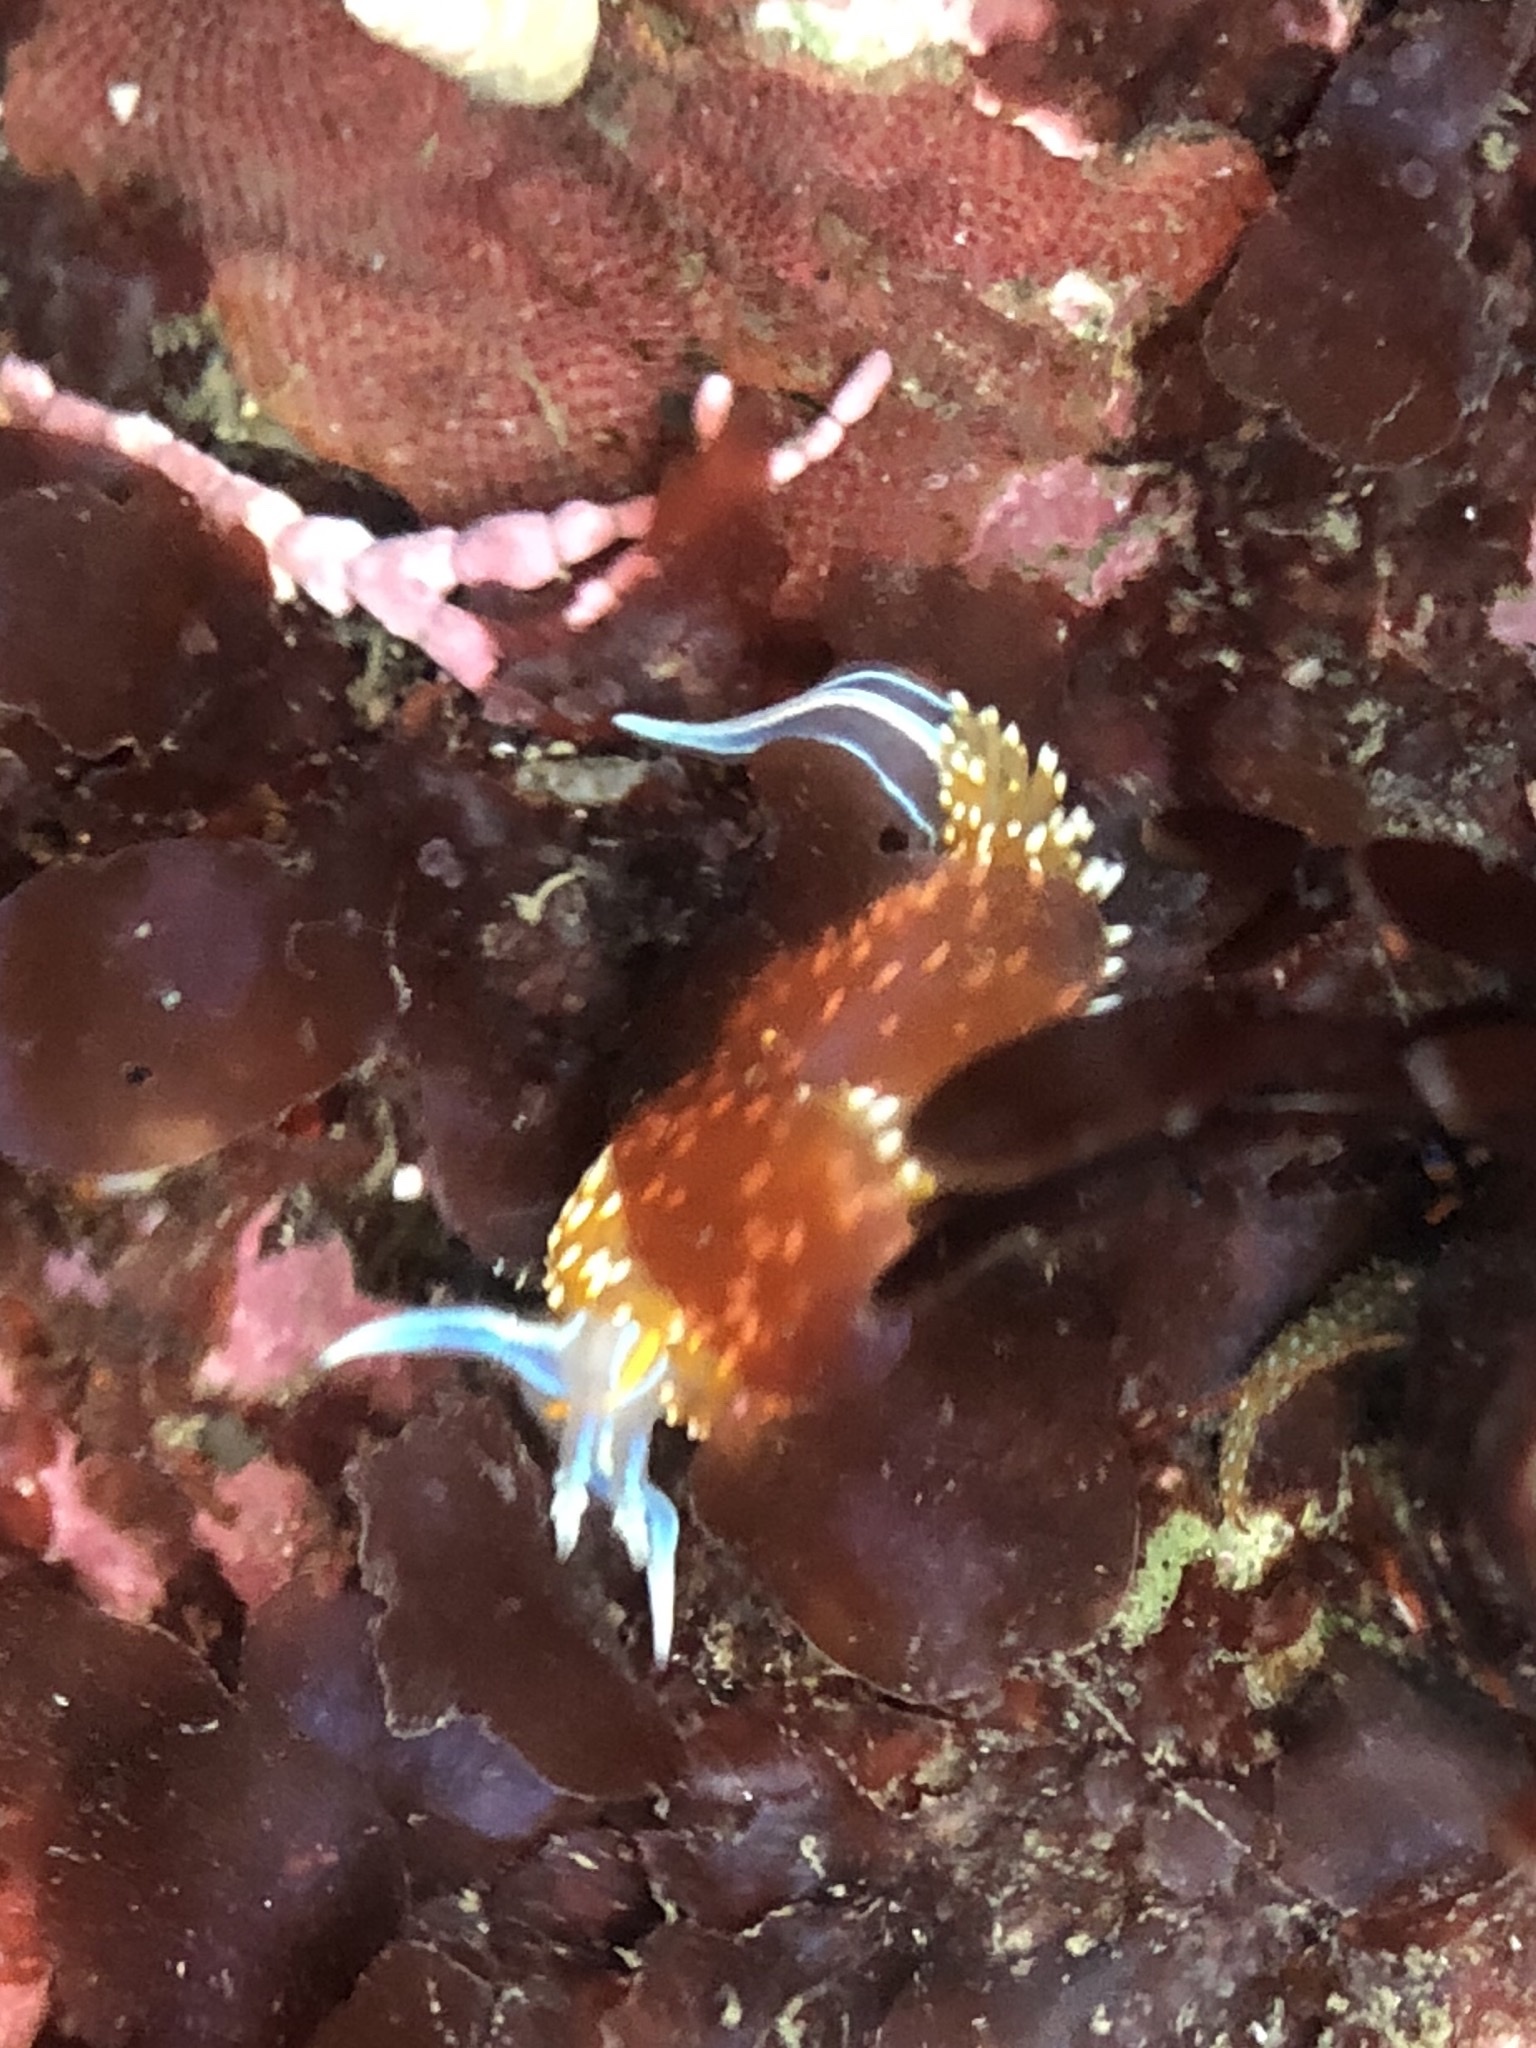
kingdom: Animalia
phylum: Mollusca
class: Gastropoda
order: Nudibranchia
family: Myrrhinidae
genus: Hermissenda
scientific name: Hermissenda opalescens
